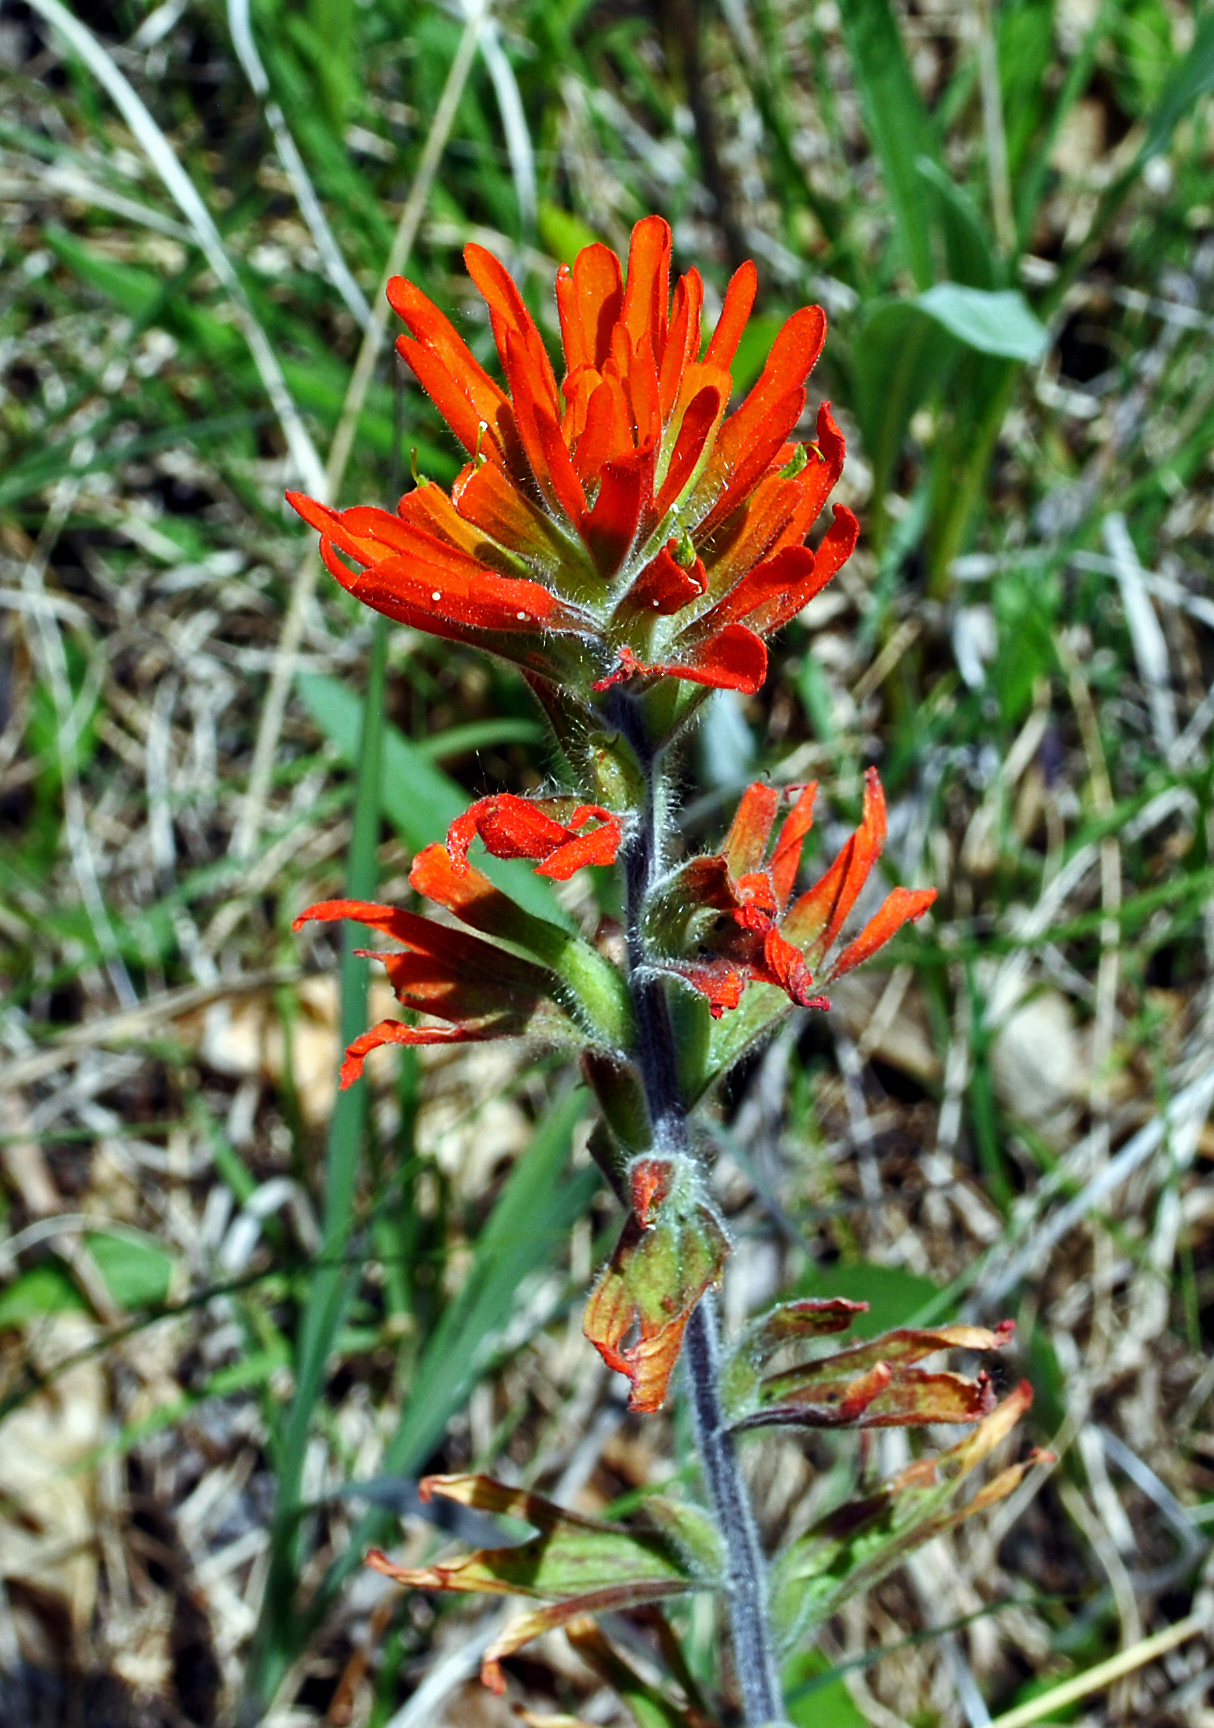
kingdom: Plantae
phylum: Tracheophyta
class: Magnoliopsida
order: Lamiales
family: Orobanchaceae
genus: Castilleja
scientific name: Castilleja coccinea
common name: Scarlet paintbrush
